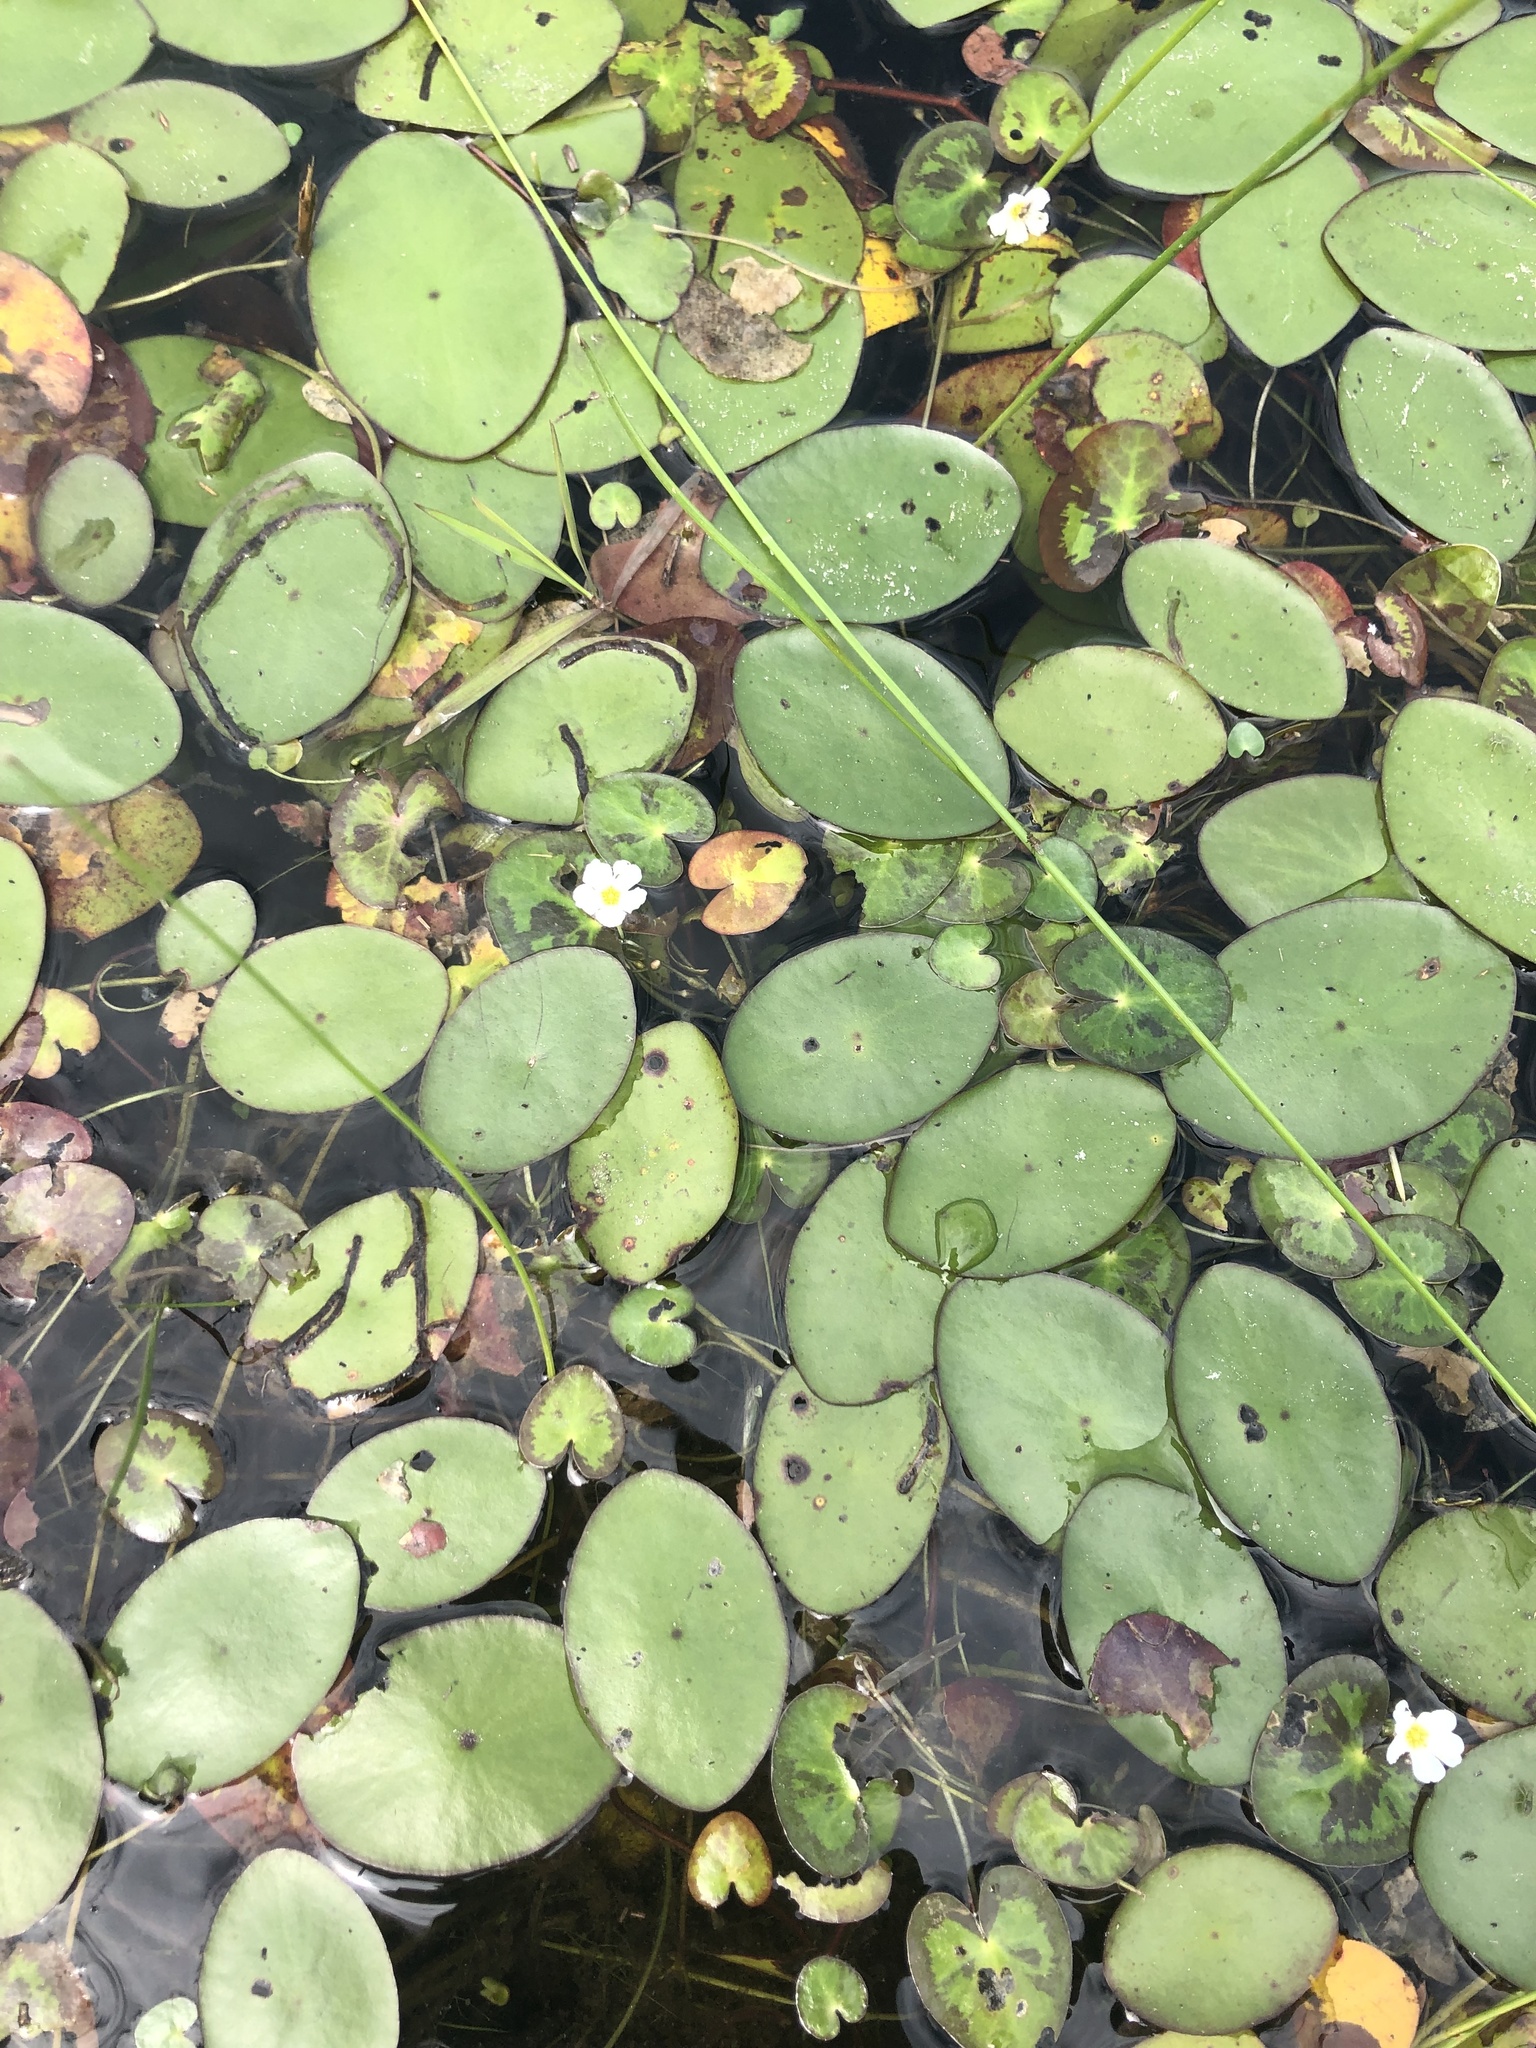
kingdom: Plantae
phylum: Tracheophyta
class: Magnoliopsida
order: Nymphaeales
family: Cabombaceae
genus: Brasenia
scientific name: Brasenia schreberi
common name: Water-shield
